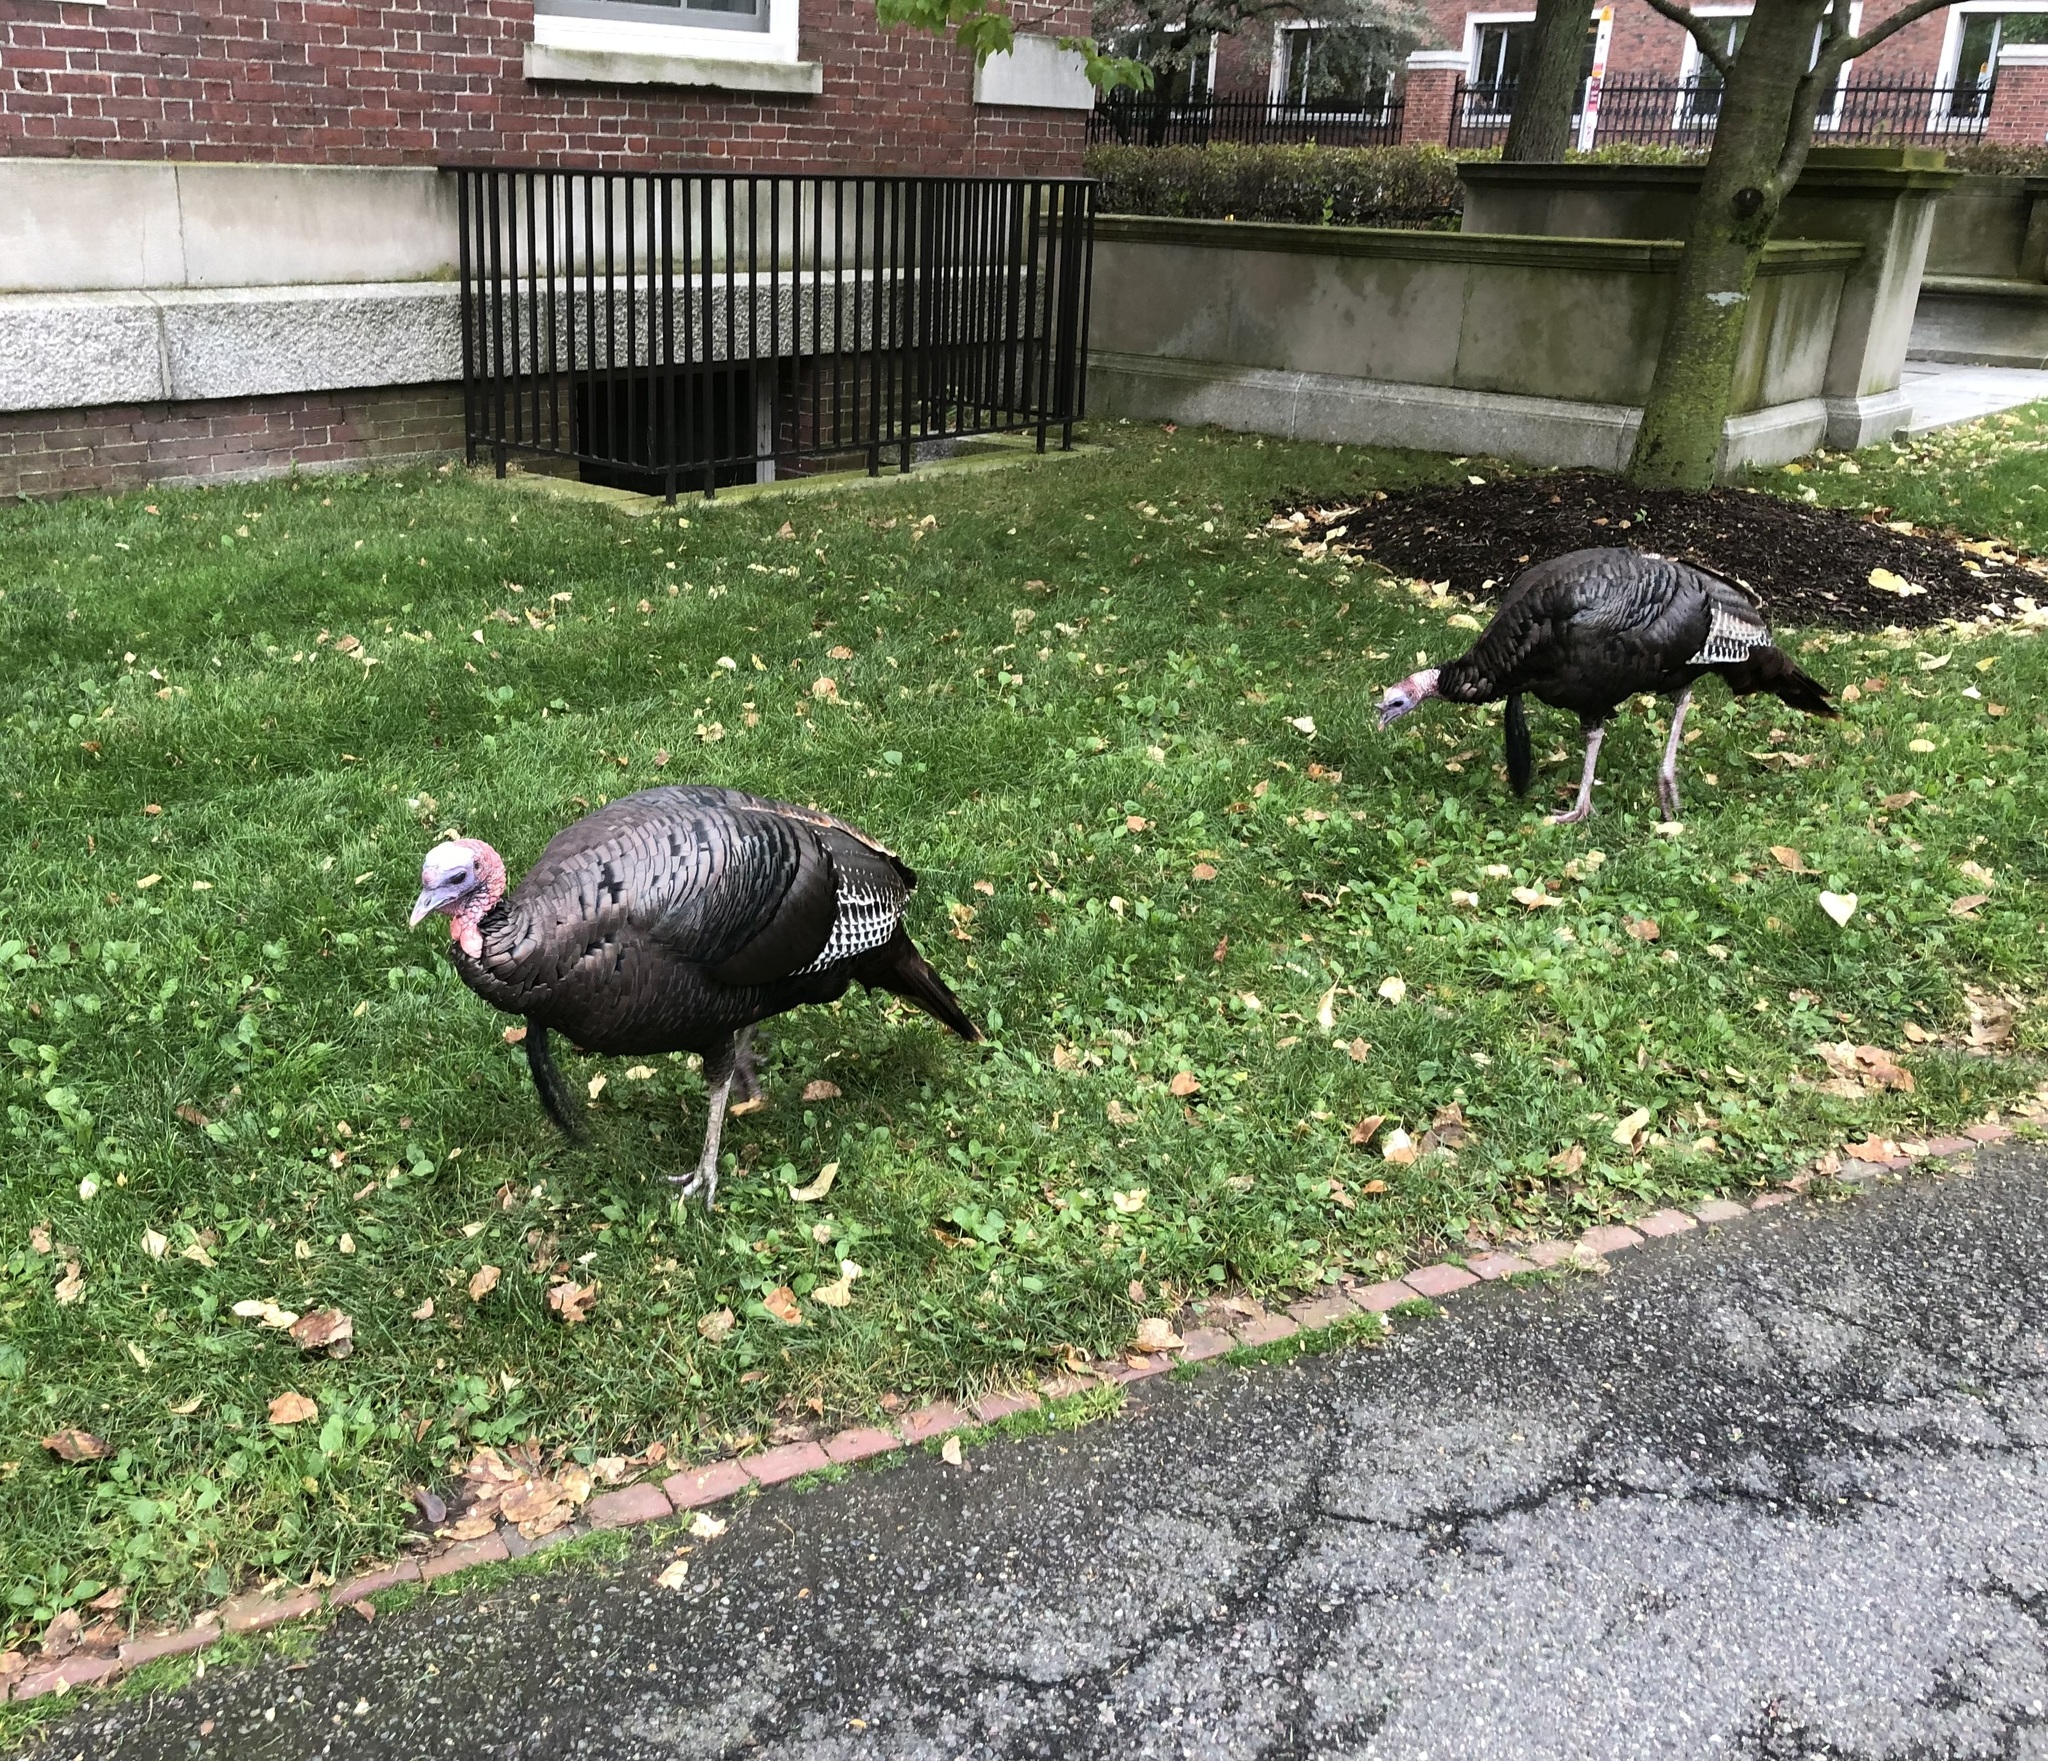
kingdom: Animalia
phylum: Chordata
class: Aves
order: Galliformes
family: Phasianidae
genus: Meleagris
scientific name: Meleagris gallopavo
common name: Wild turkey
